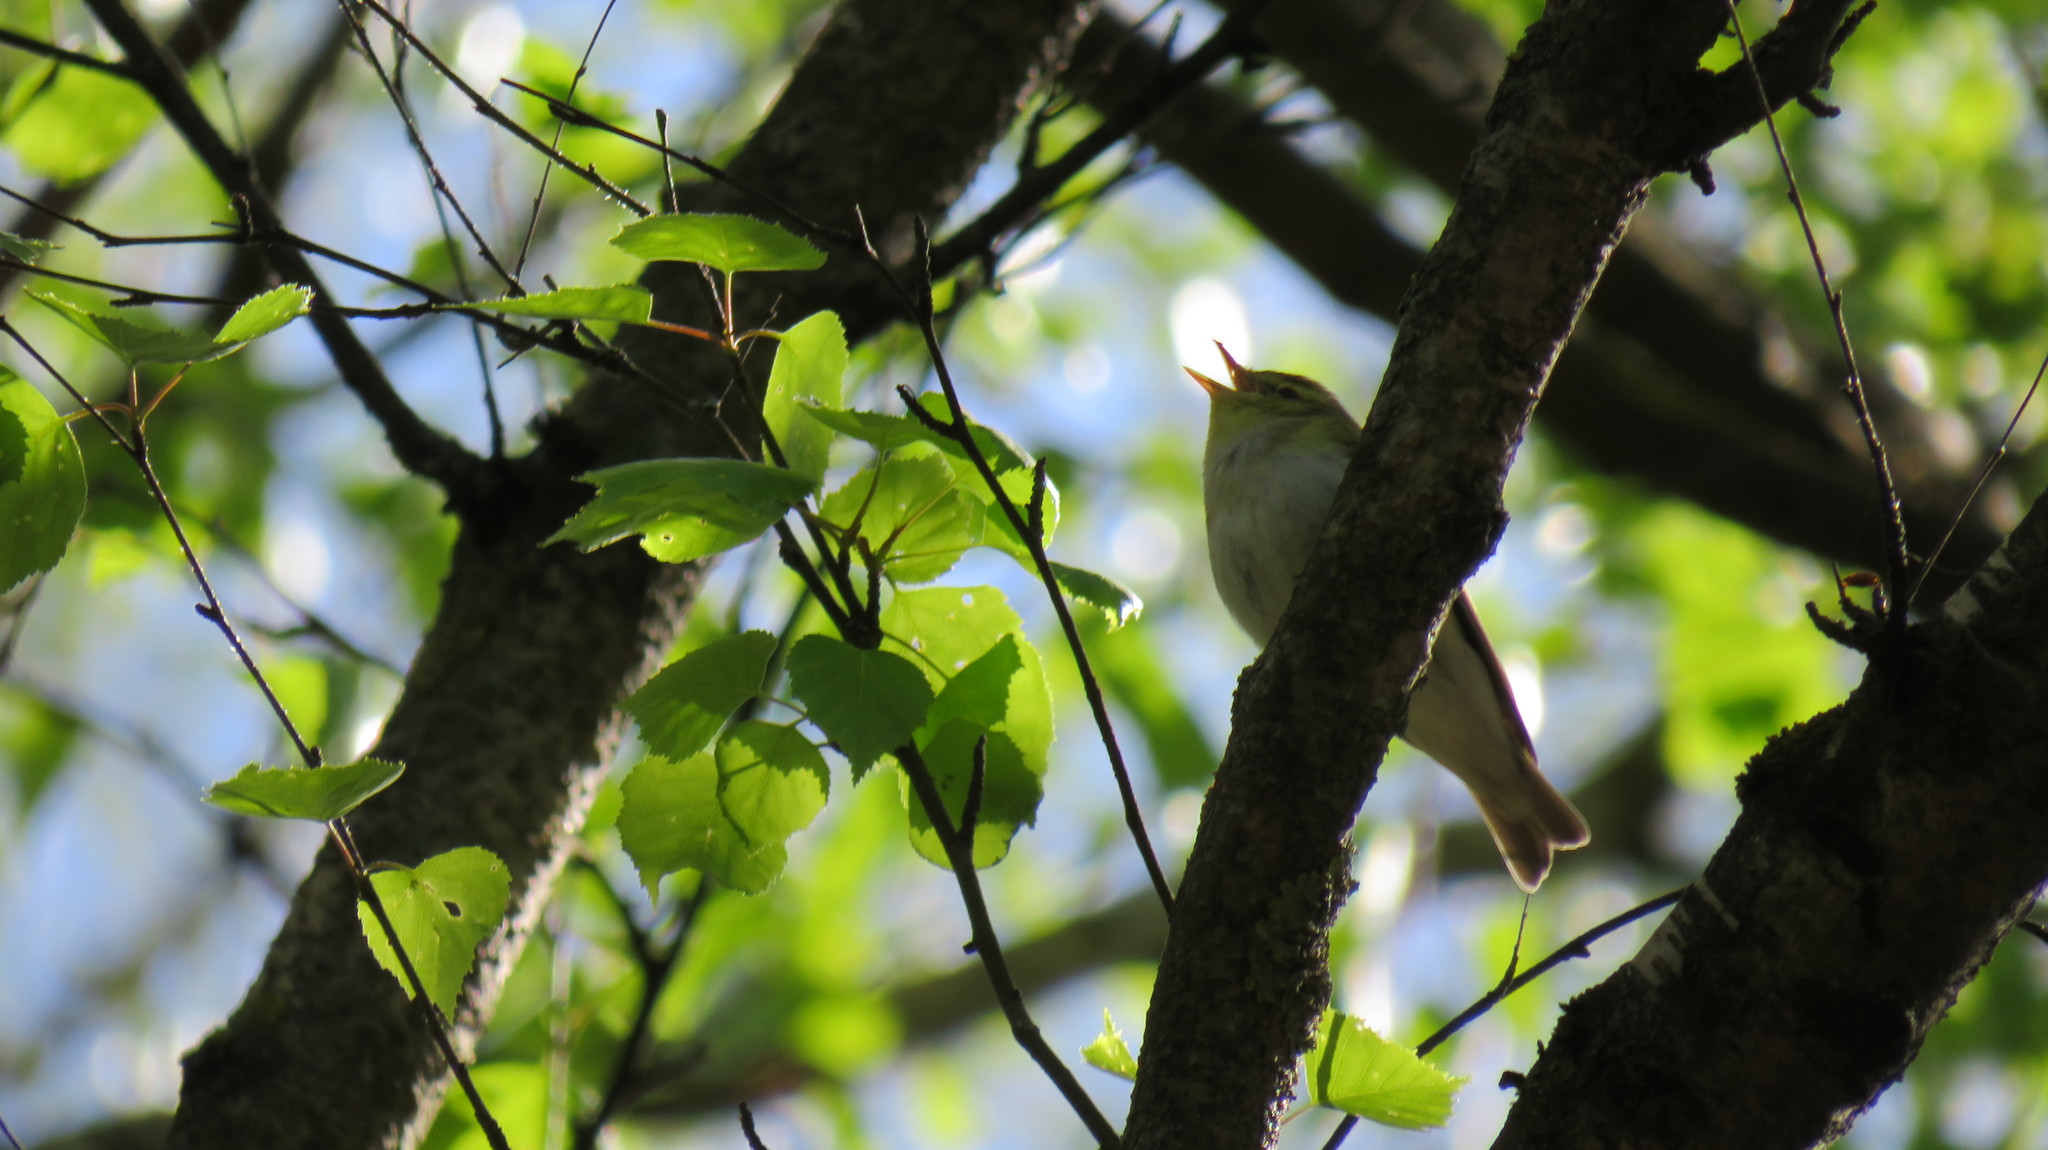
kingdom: Animalia
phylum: Chordata
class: Aves
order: Passeriformes
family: Phylloscopidae
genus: Phylloscopus
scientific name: Phylloscopus sibillatrix
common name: Wood warbler
